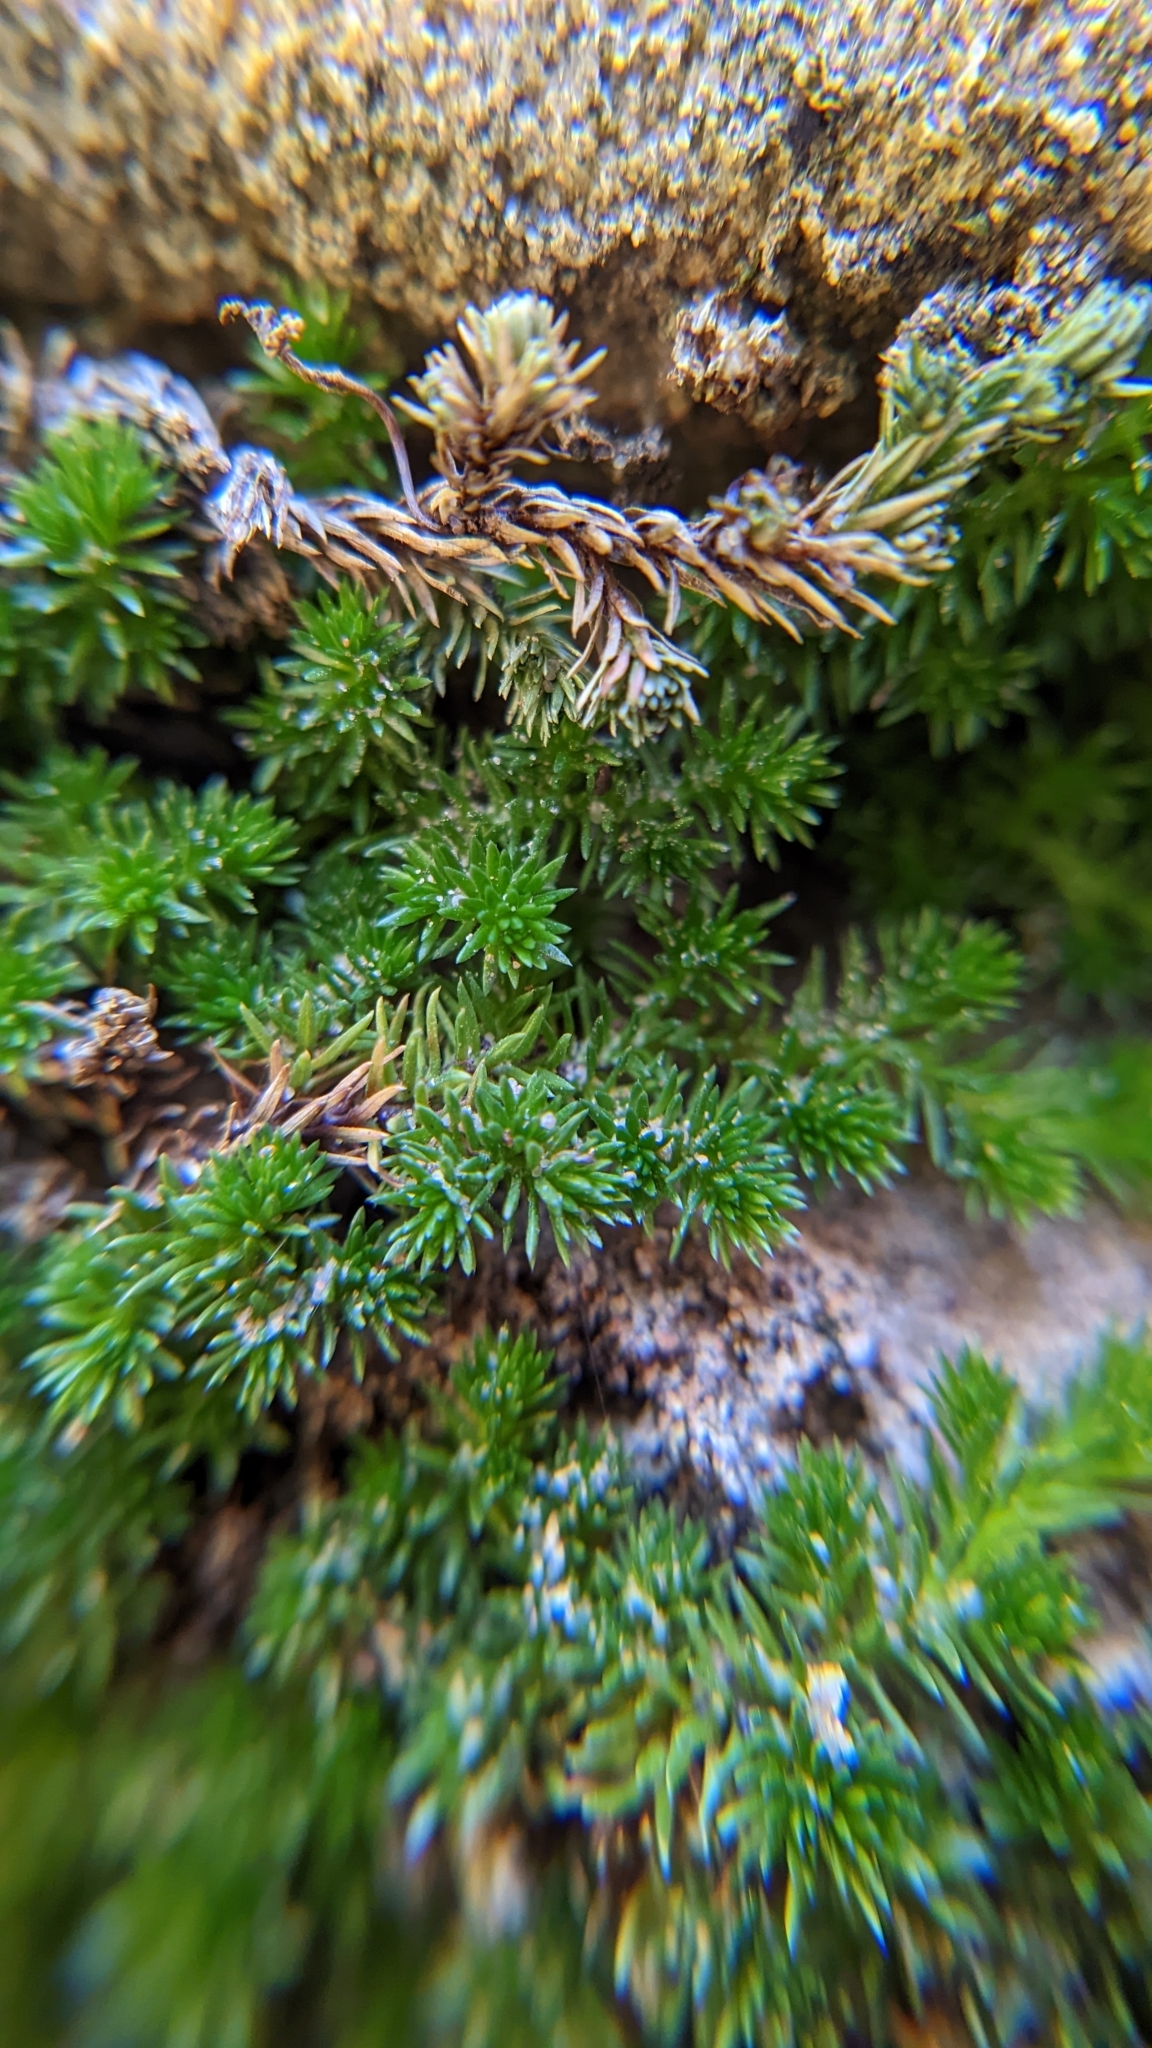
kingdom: Plantae
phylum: Tracheophyta
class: Lycopodiopsida
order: Selaginellales
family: Selaginellaceae
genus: Selaginella
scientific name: Selaginella utahensis
